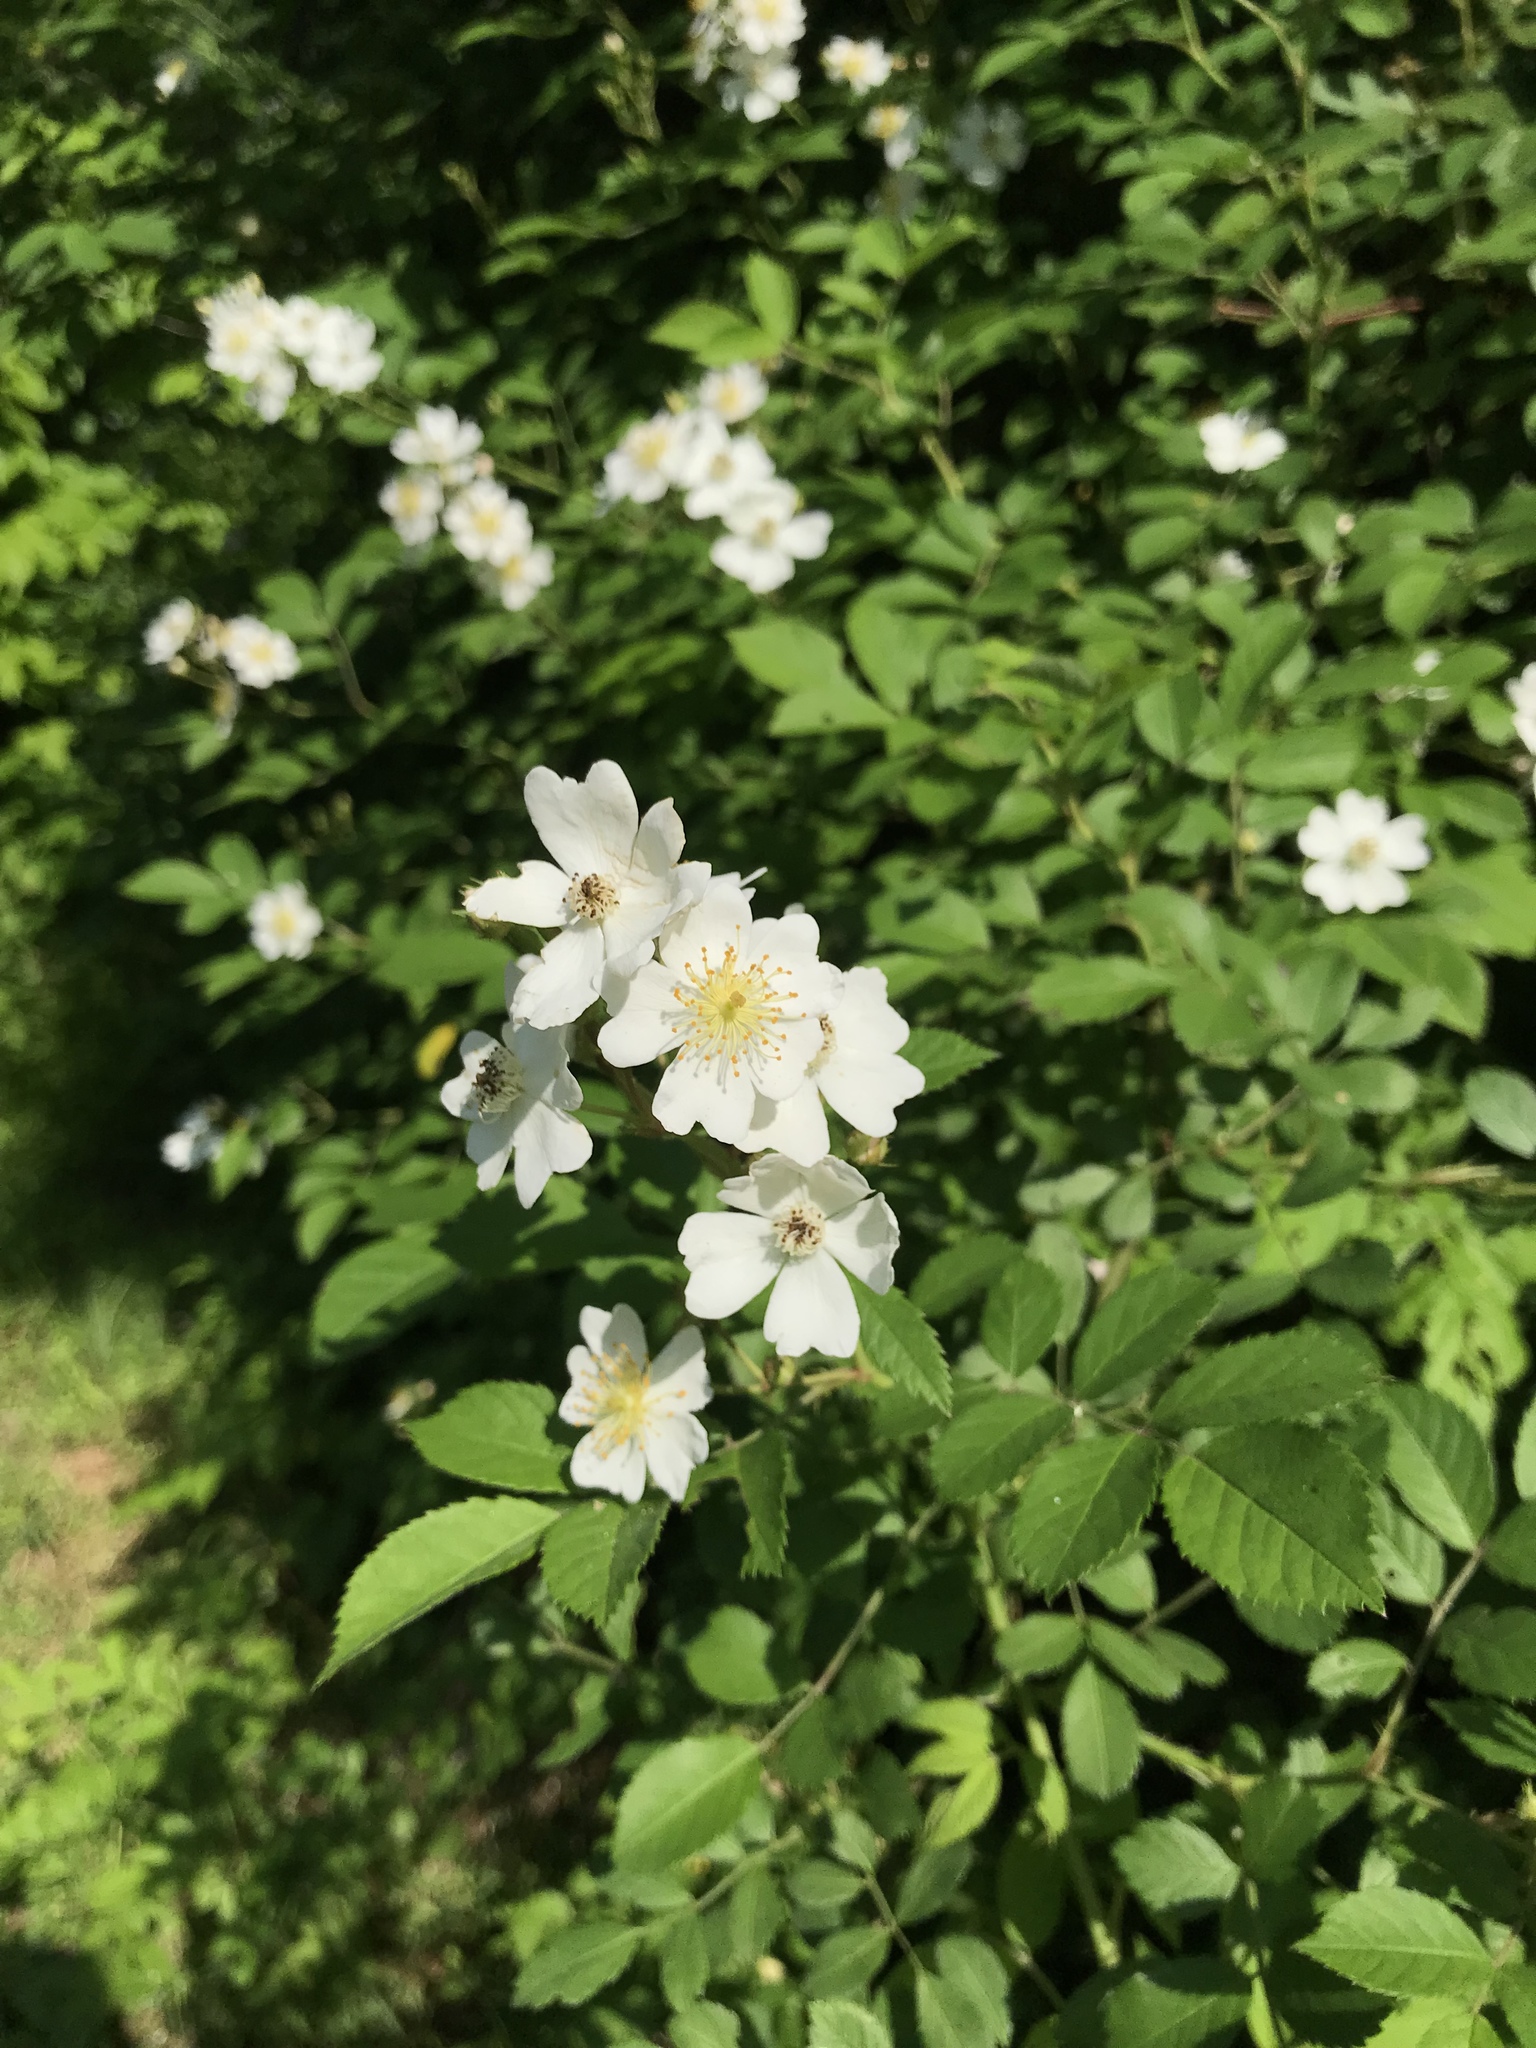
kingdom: Plantae
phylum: Tracheophyta
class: Magnoliopsida
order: Rosales
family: Rosaceae
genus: Rosa
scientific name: Rosa multiflora
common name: Multiflora rose
